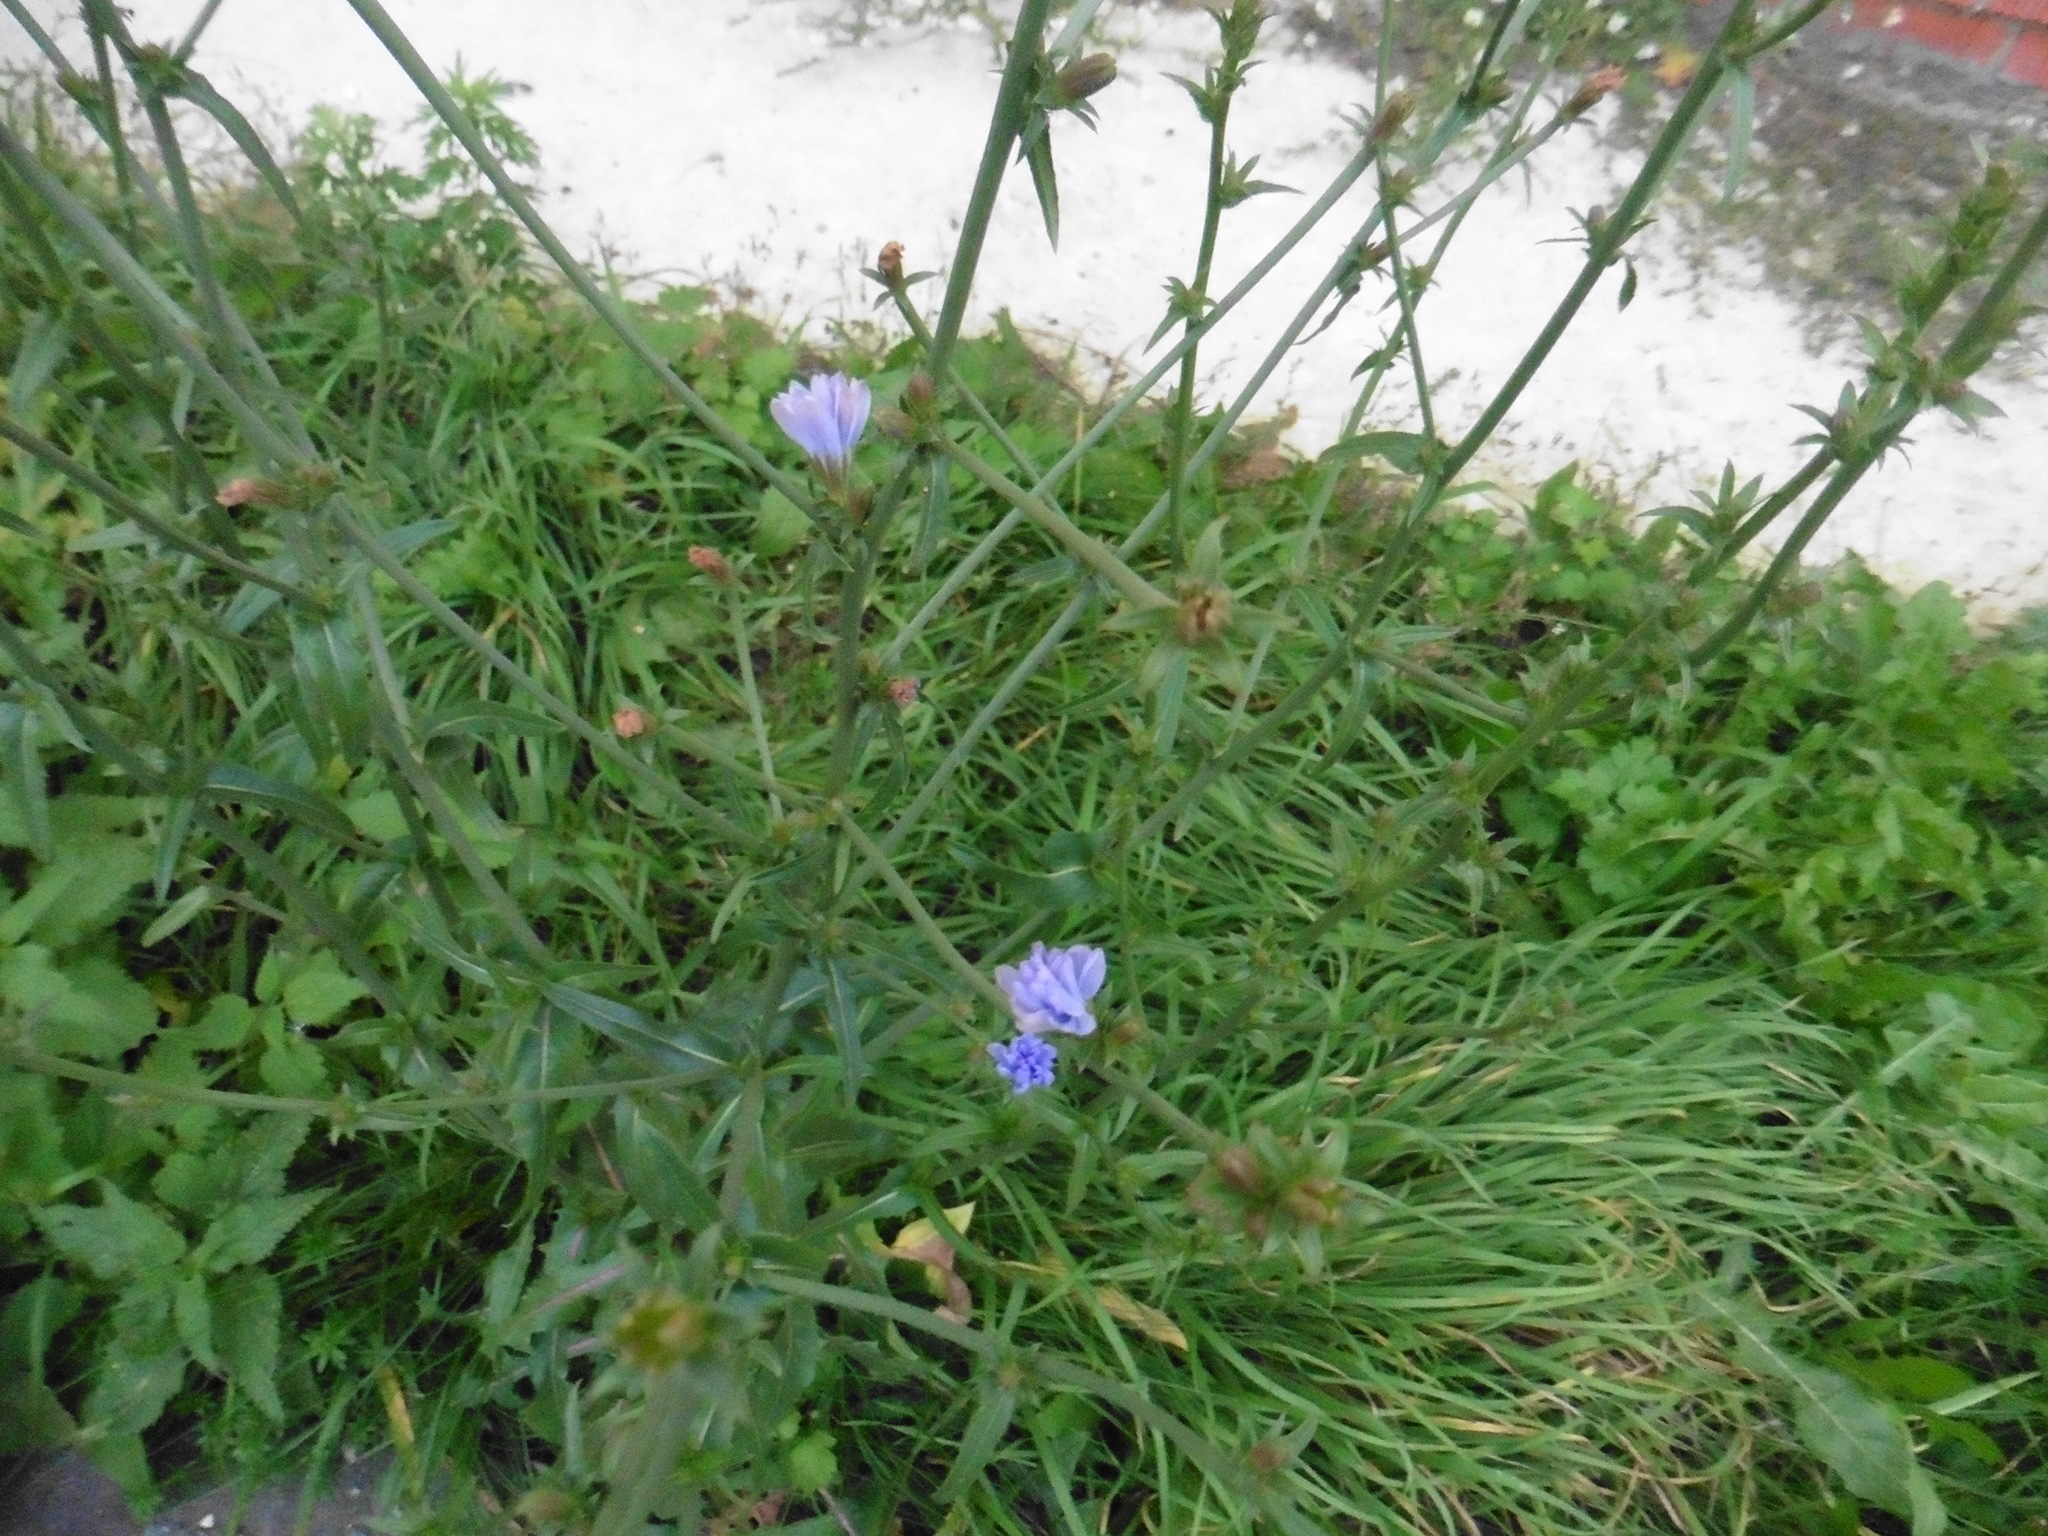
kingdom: Plantae
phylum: Tracheophyta
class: Magnoliopsida
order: Asterales
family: Asteraceae
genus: Cichorium
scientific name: Cichorium intybus
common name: Chicory
